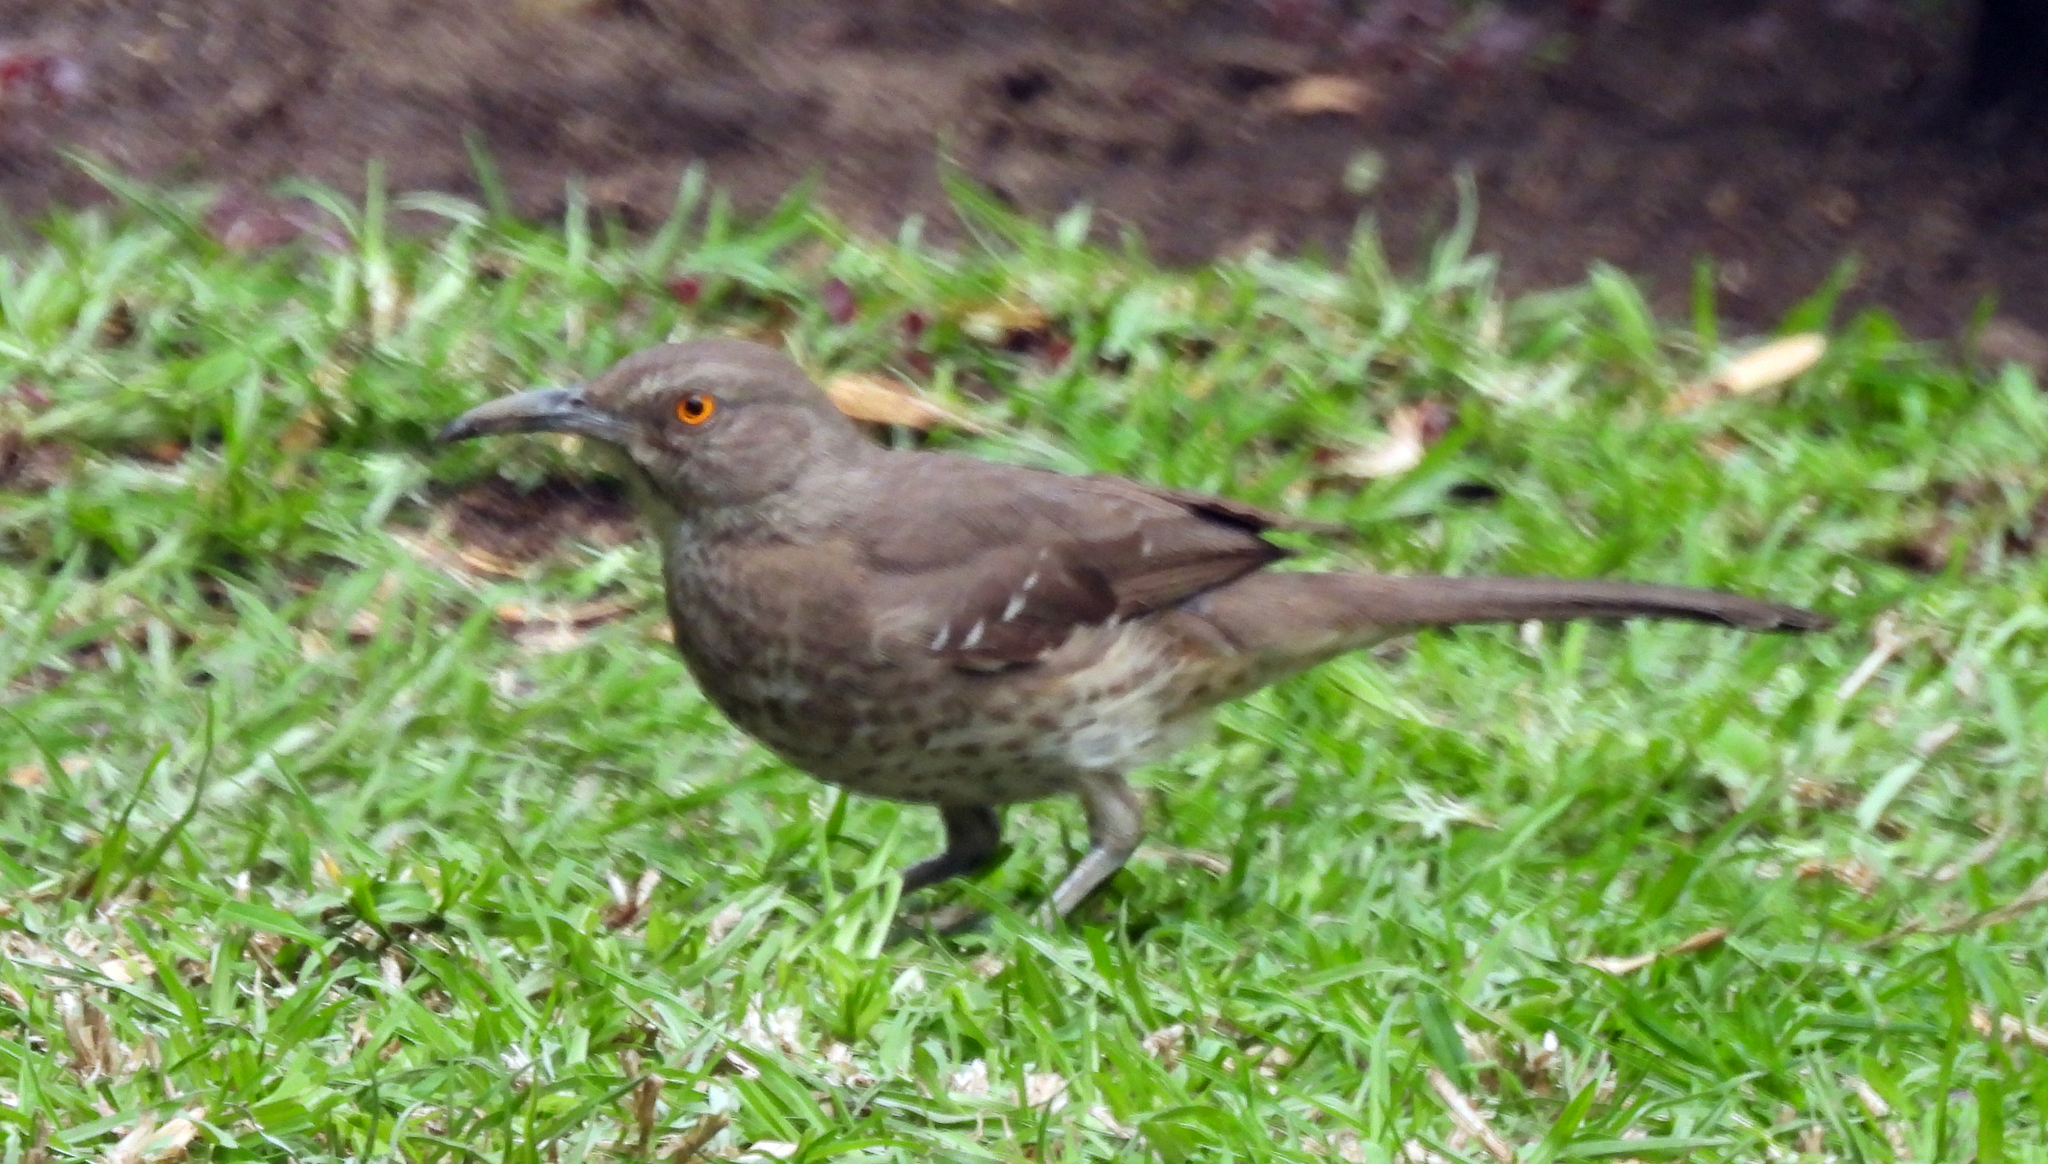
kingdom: Animalia
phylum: Chordata
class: Aves
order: Passeriformes
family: Mimidae
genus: Toxostoma
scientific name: Toxostoma curvirostre
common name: Curve-billed thrasher
